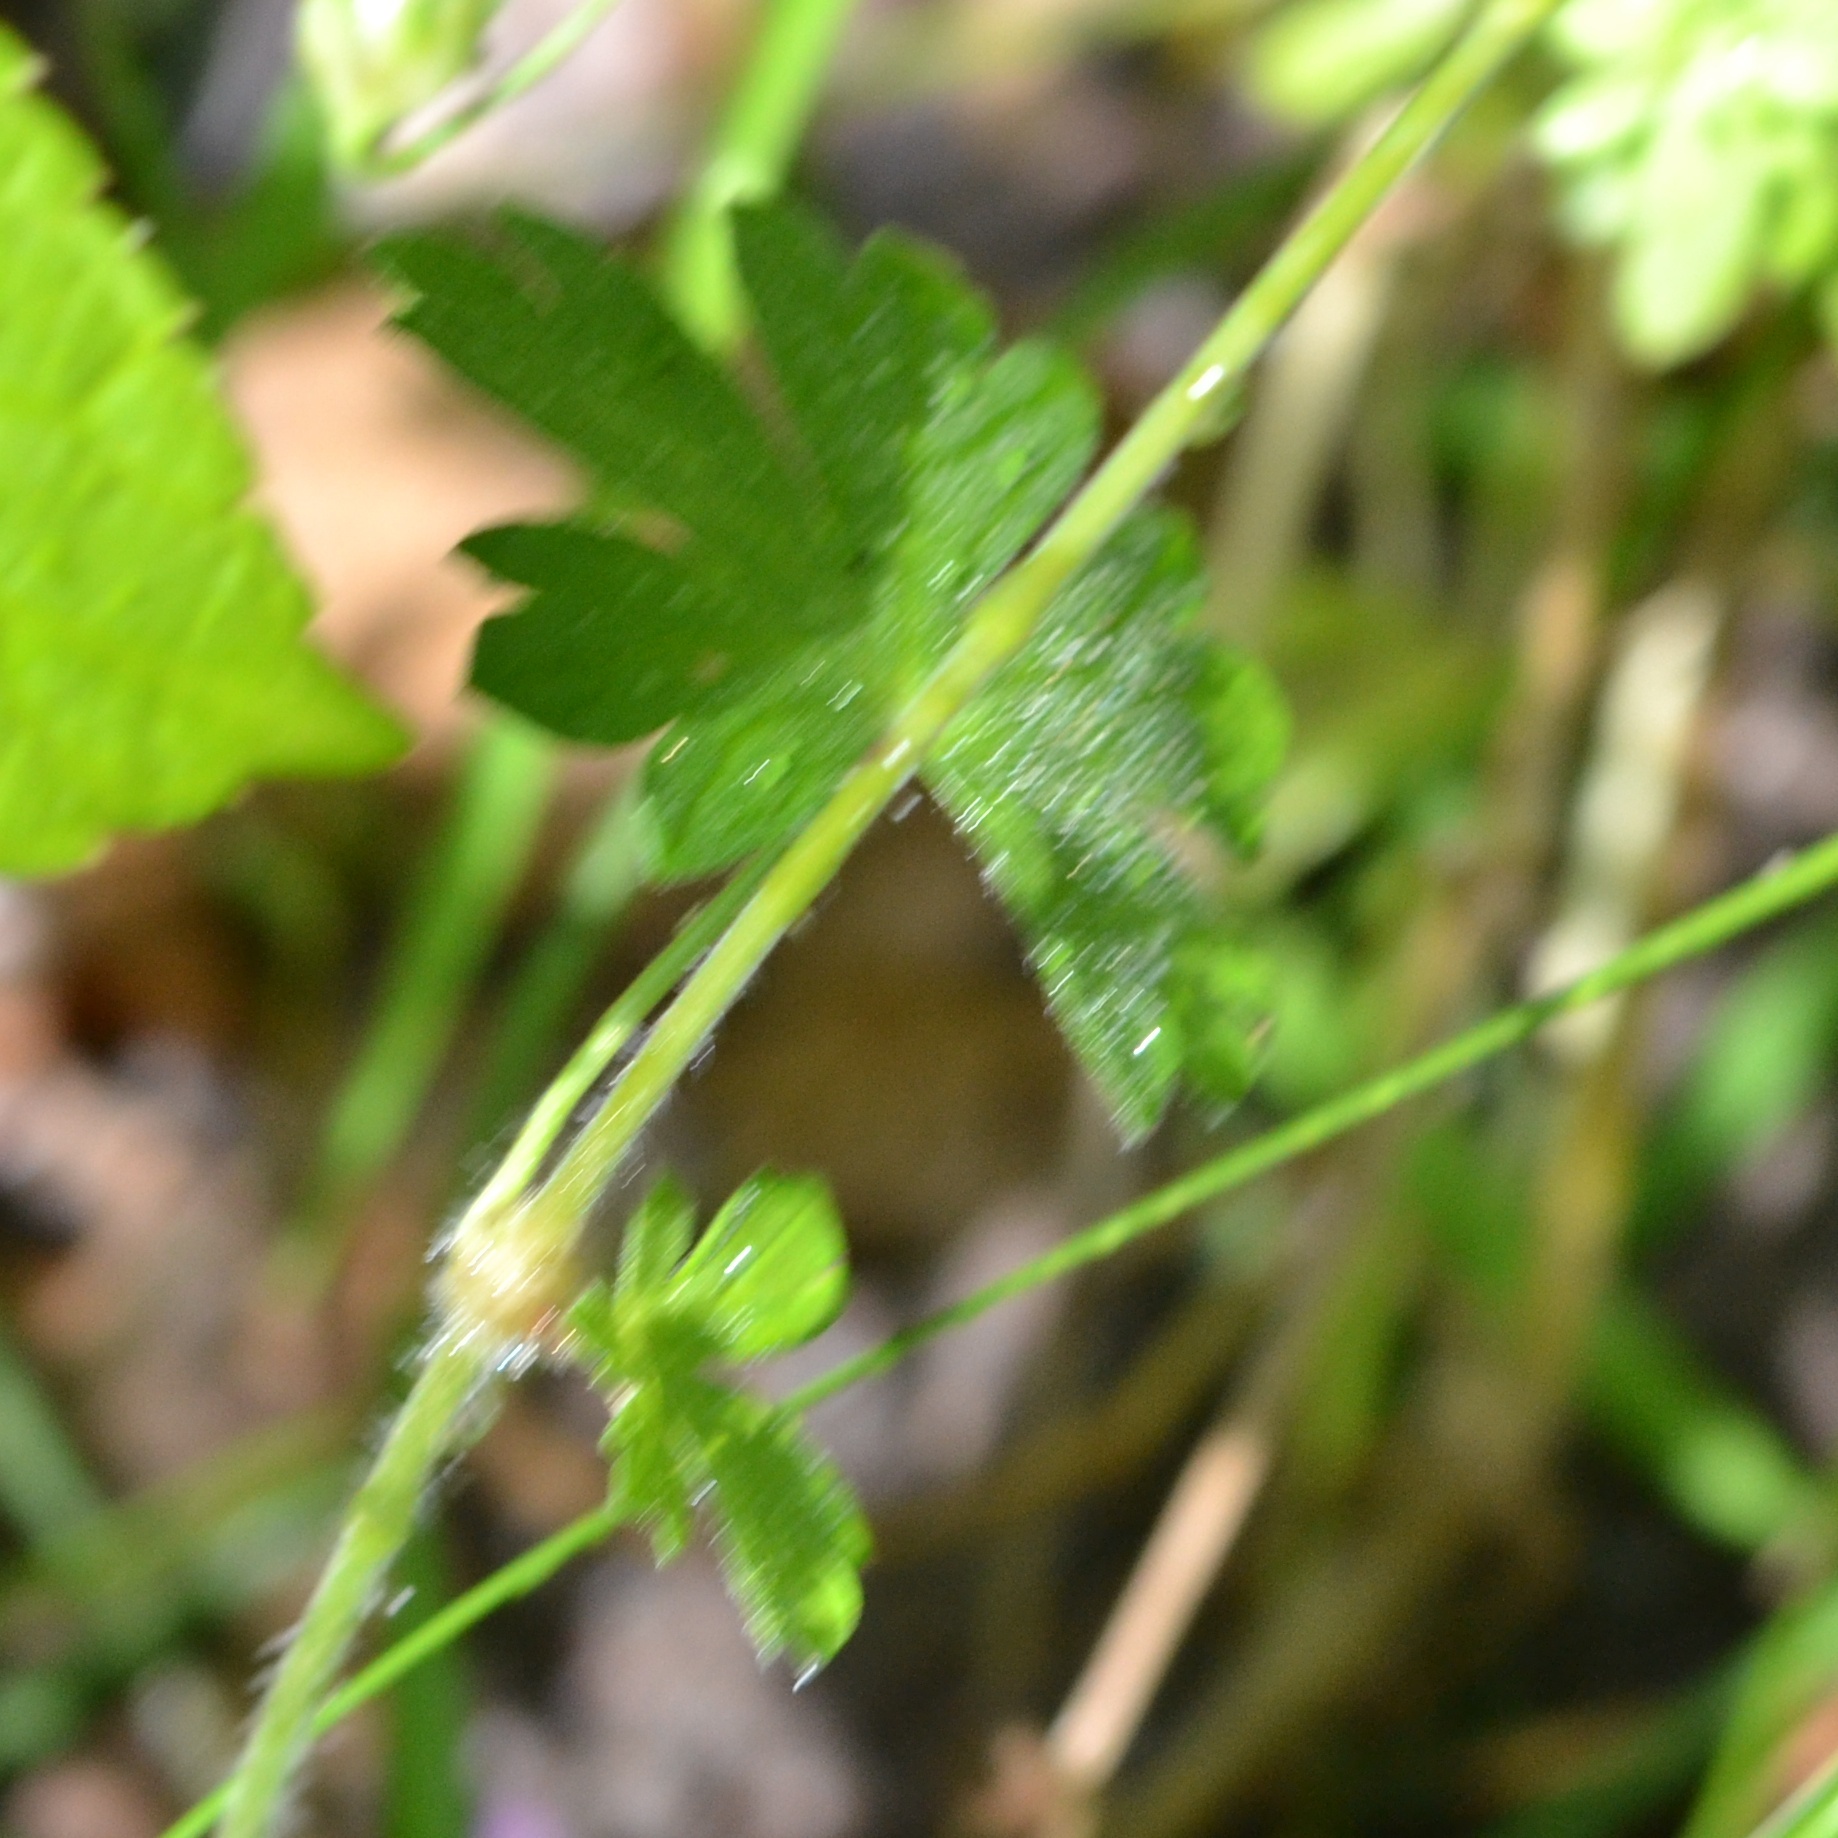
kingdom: Plantae
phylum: Tracheophyta
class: Magnoliopsida
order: Geraniales
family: Geraniaceae
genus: Geranium
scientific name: Geranium pyrenaicum
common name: Hedgerow crane's-bill
